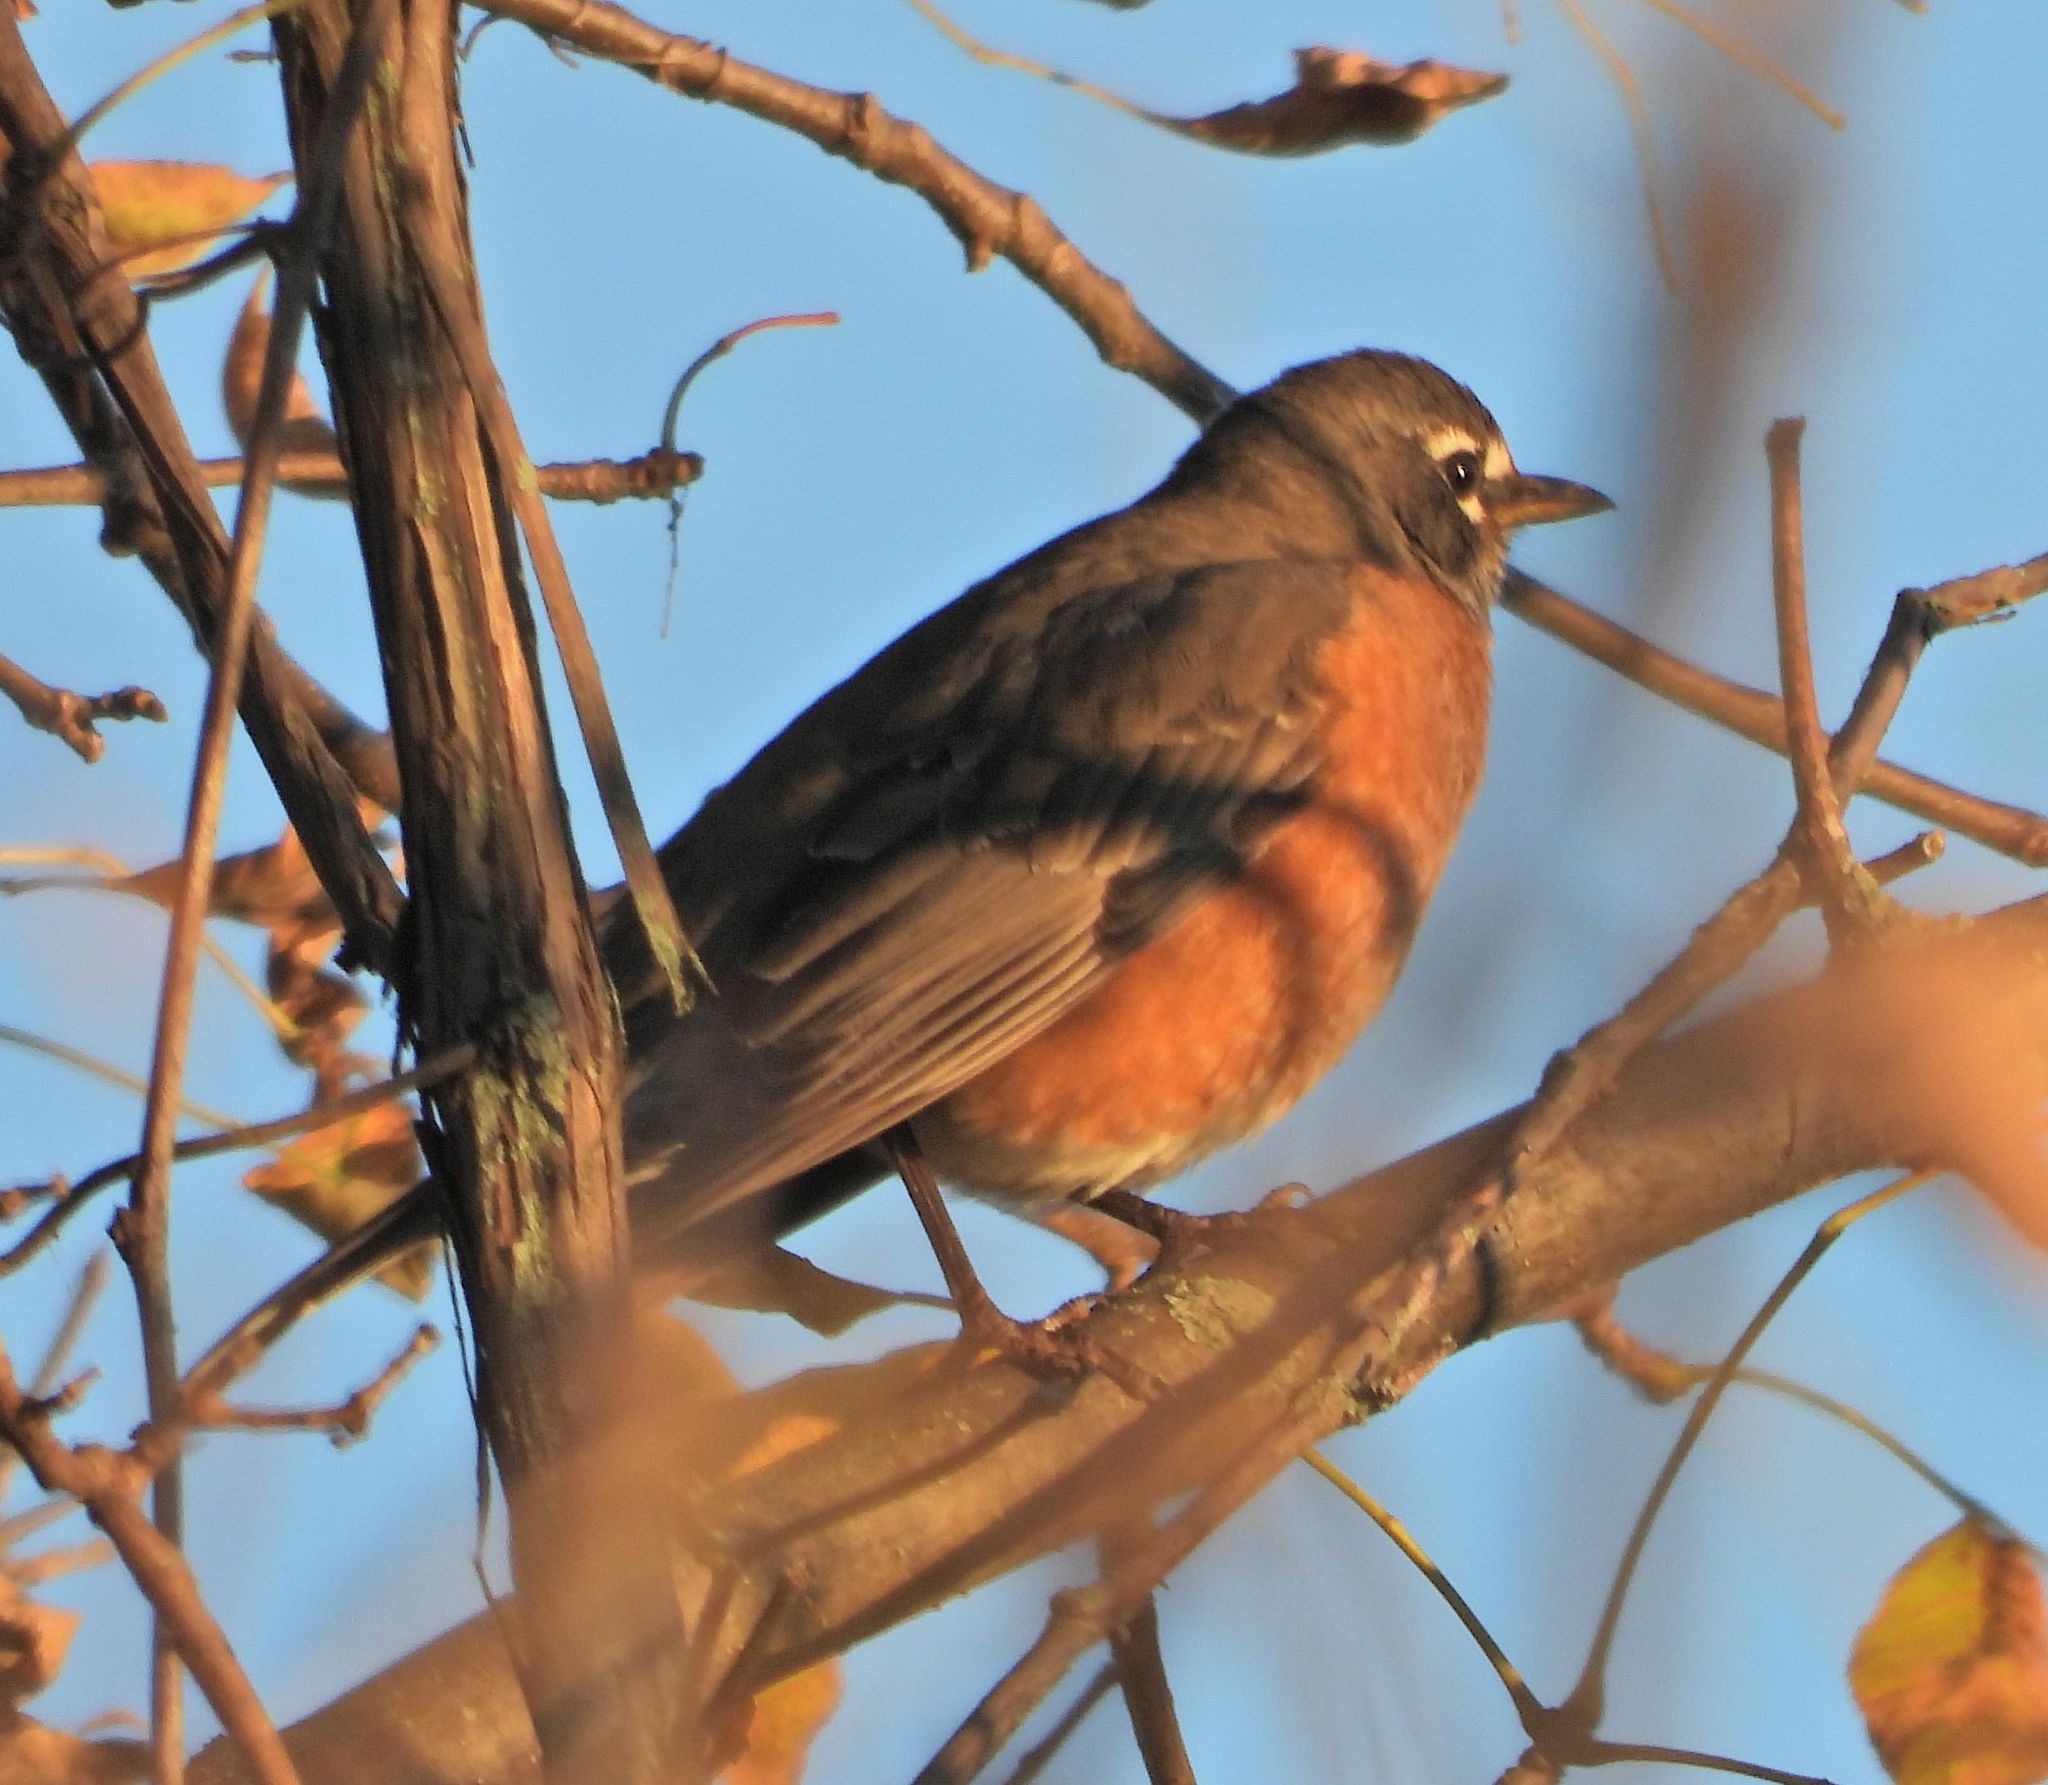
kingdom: Animalia
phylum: Chordata
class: Aves
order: Passeriformes
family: Turdidae
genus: Turdus
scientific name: Turdus migratorius
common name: American robin
